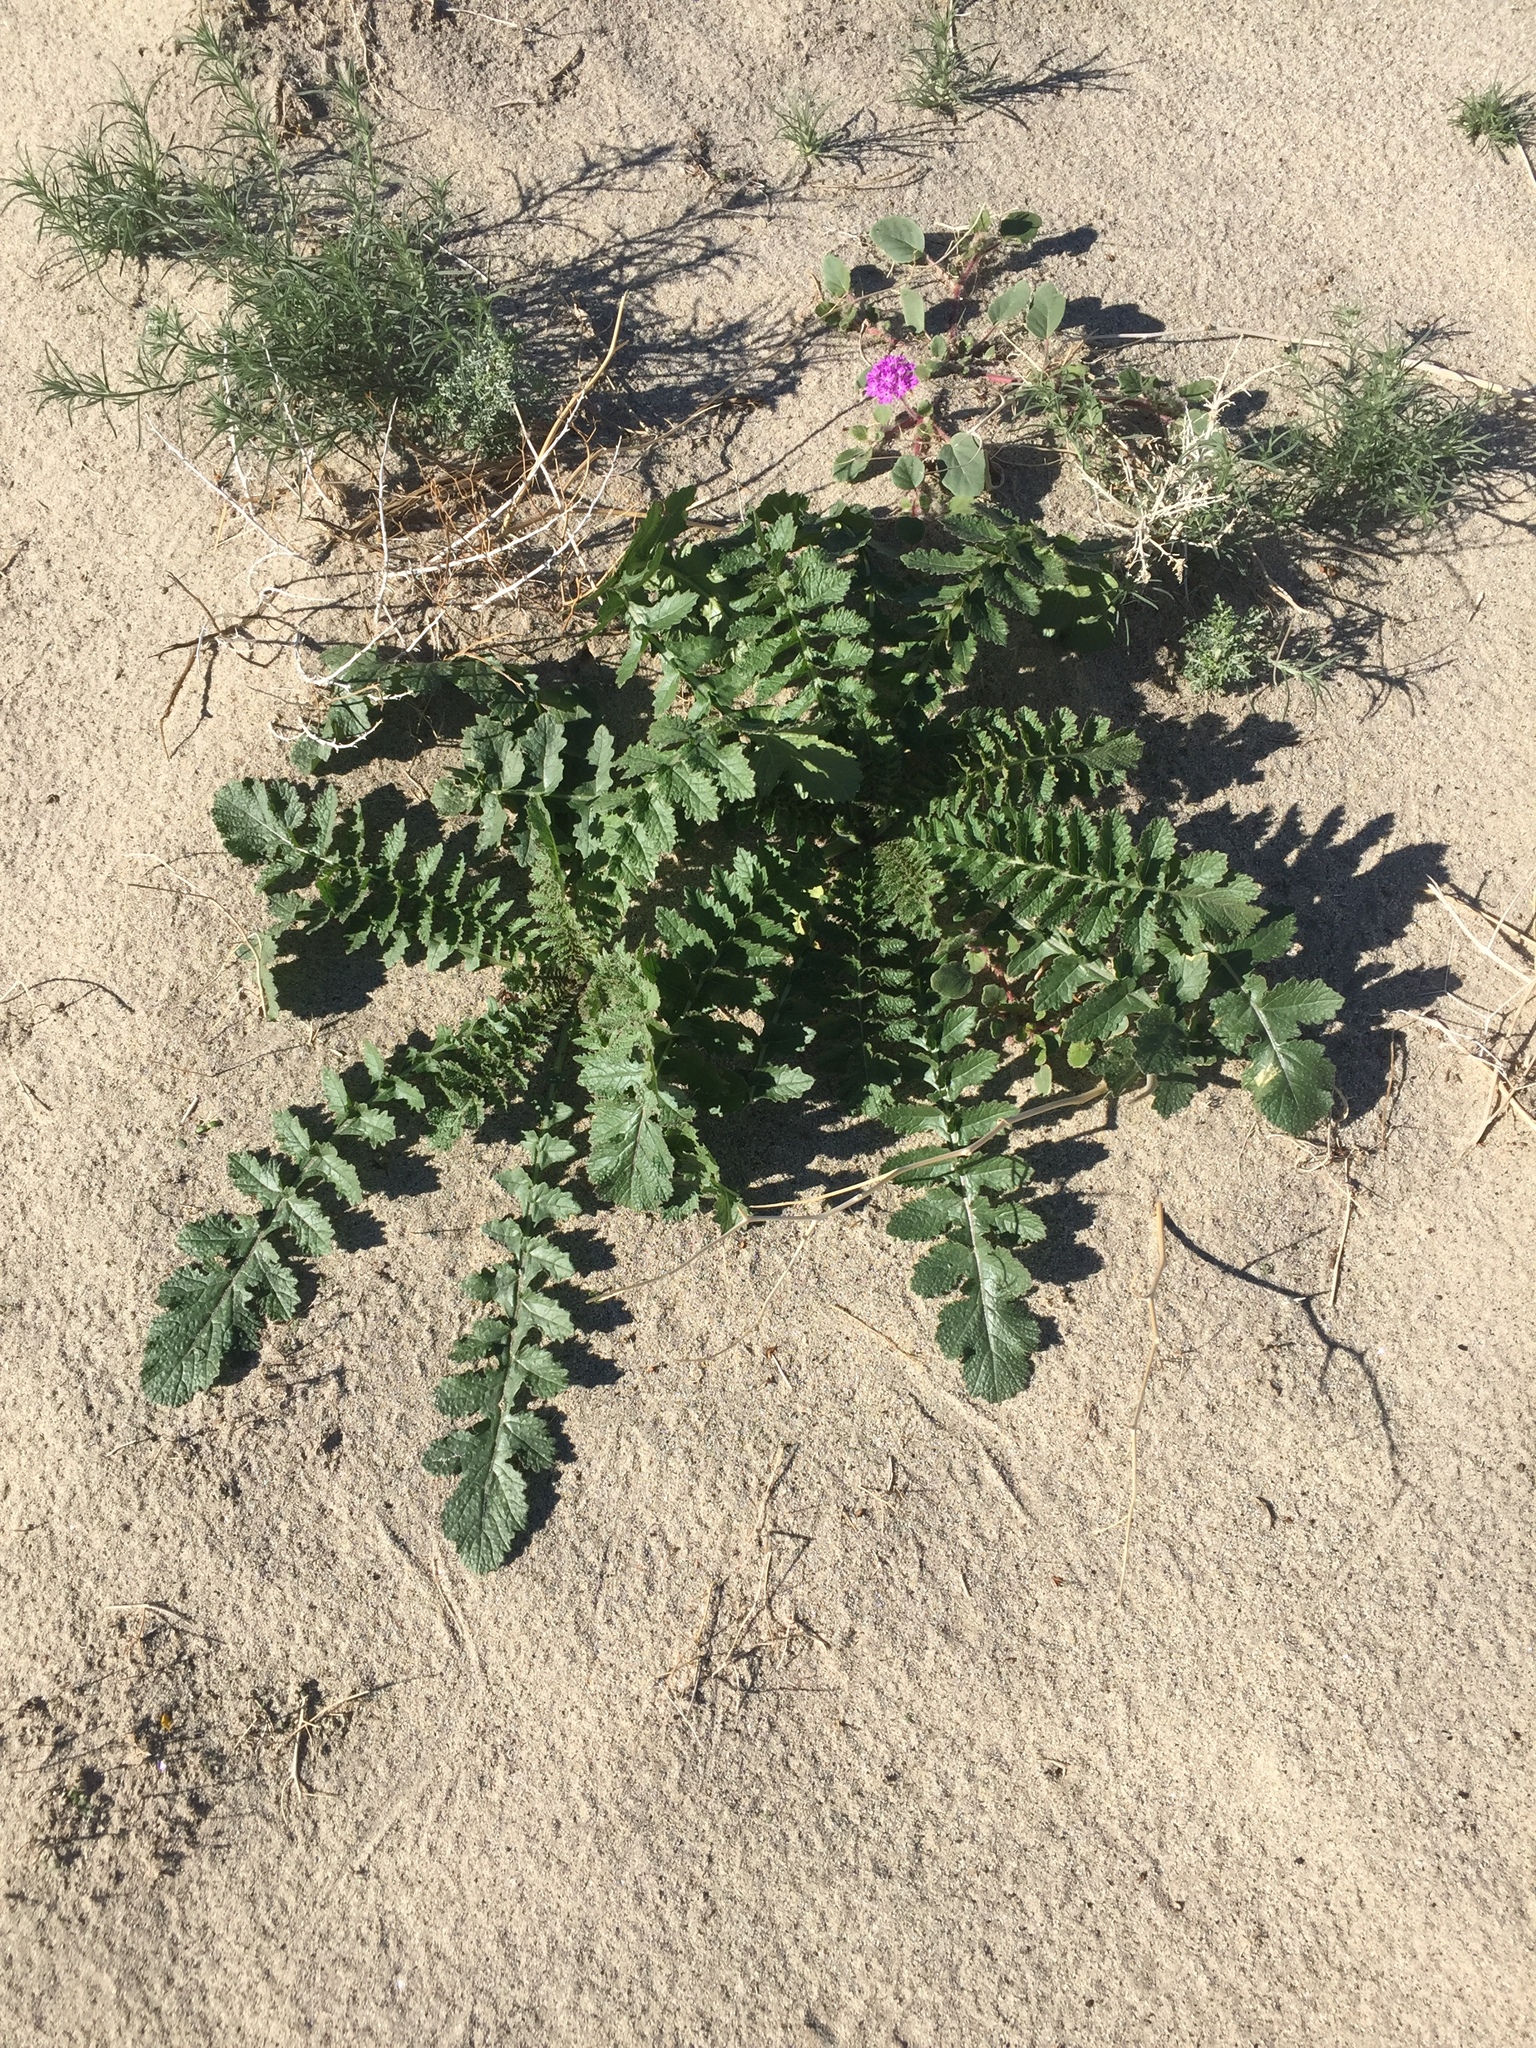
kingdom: Plantae
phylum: Tracheophyta
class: Magnoliopsida
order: Brassicales
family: Brassicaceae
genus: Brassica
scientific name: Brassica tournefortii
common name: Pale cabbage
